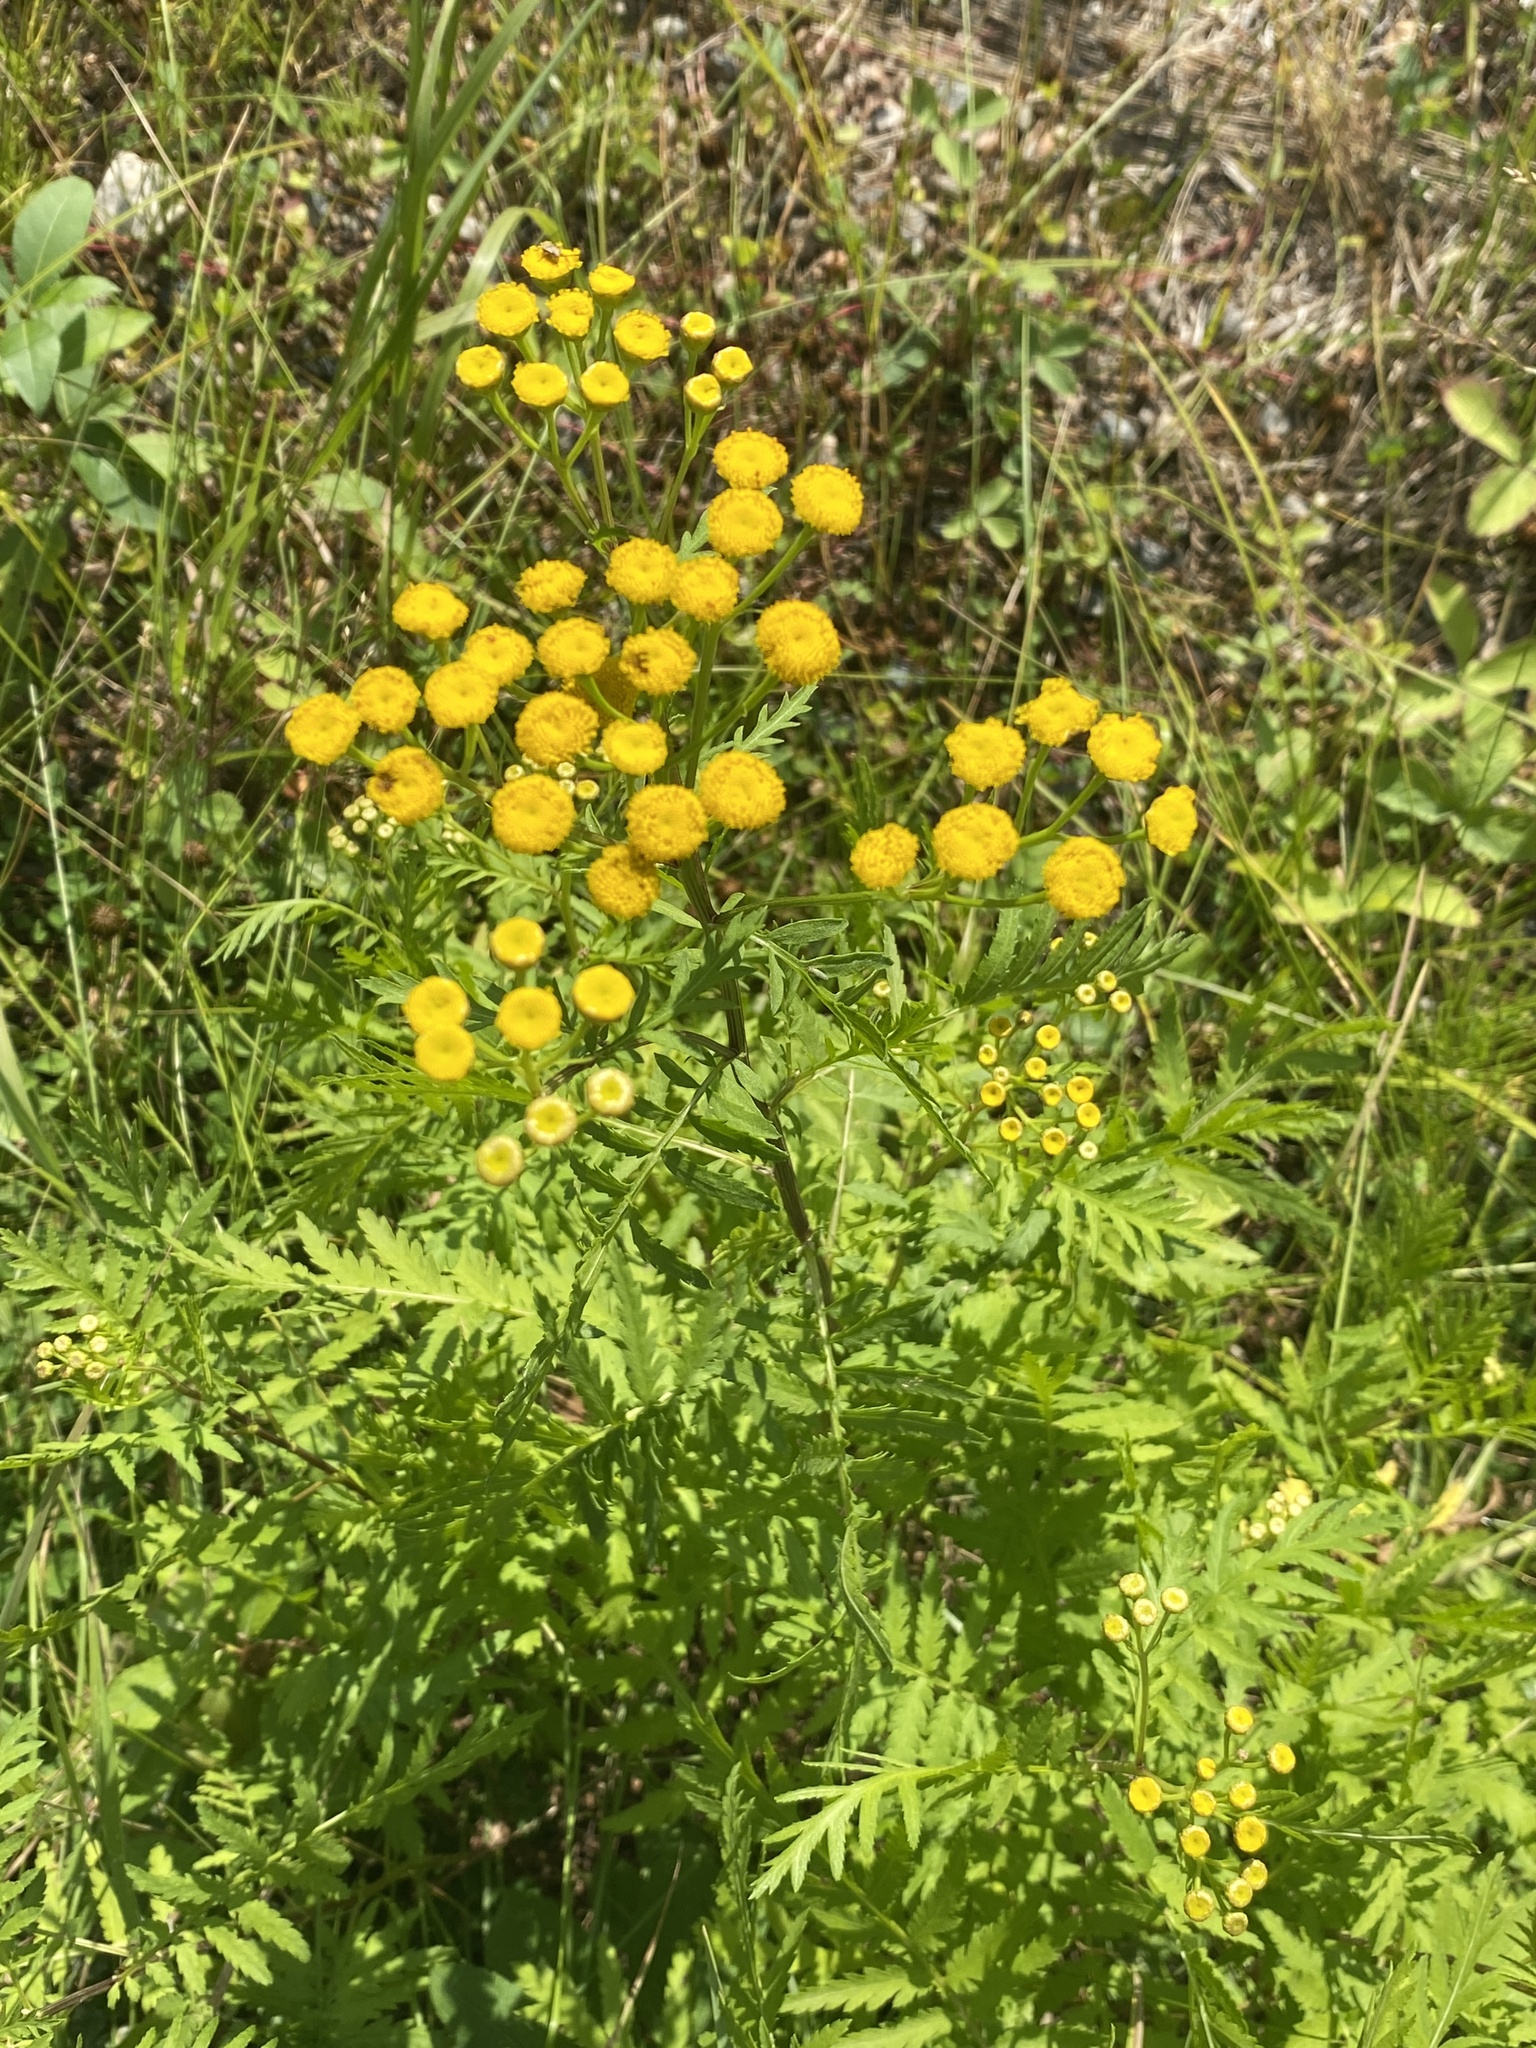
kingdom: Plantae
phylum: Tracheophyta
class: Magnoliopsida
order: Asterales
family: Asteraceae
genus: Tanacetum
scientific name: Tanacetum vulgare
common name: Common tansy
